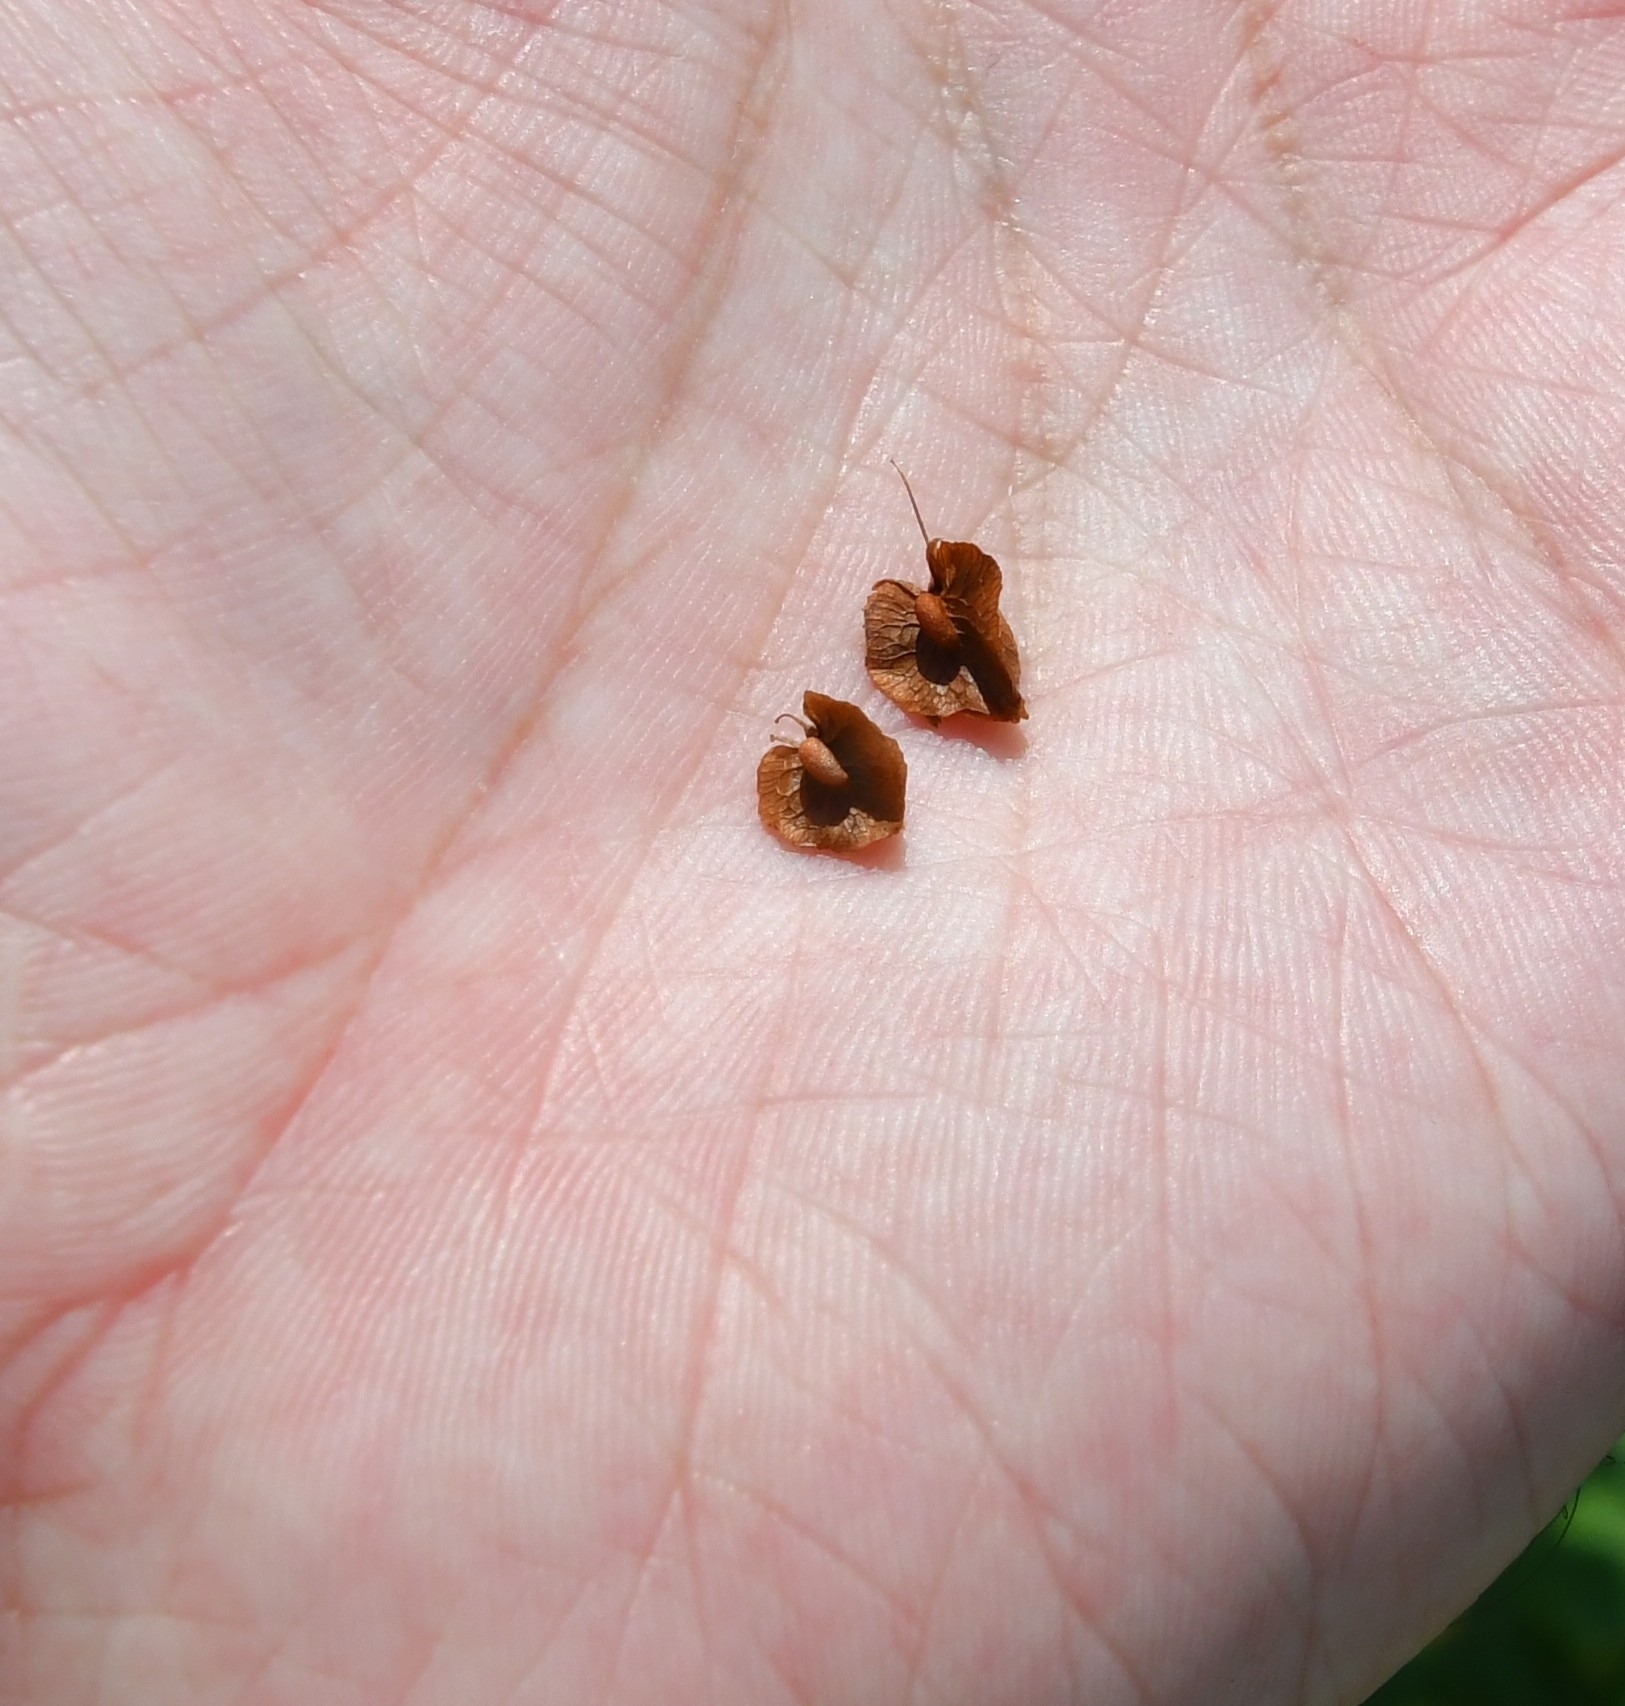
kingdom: Plantae
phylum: Tracheophyta
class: Magnoliopsida
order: Caryophyllales
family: Polygonaceae
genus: Rumex
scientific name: Rumex patientia
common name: Patience dock
